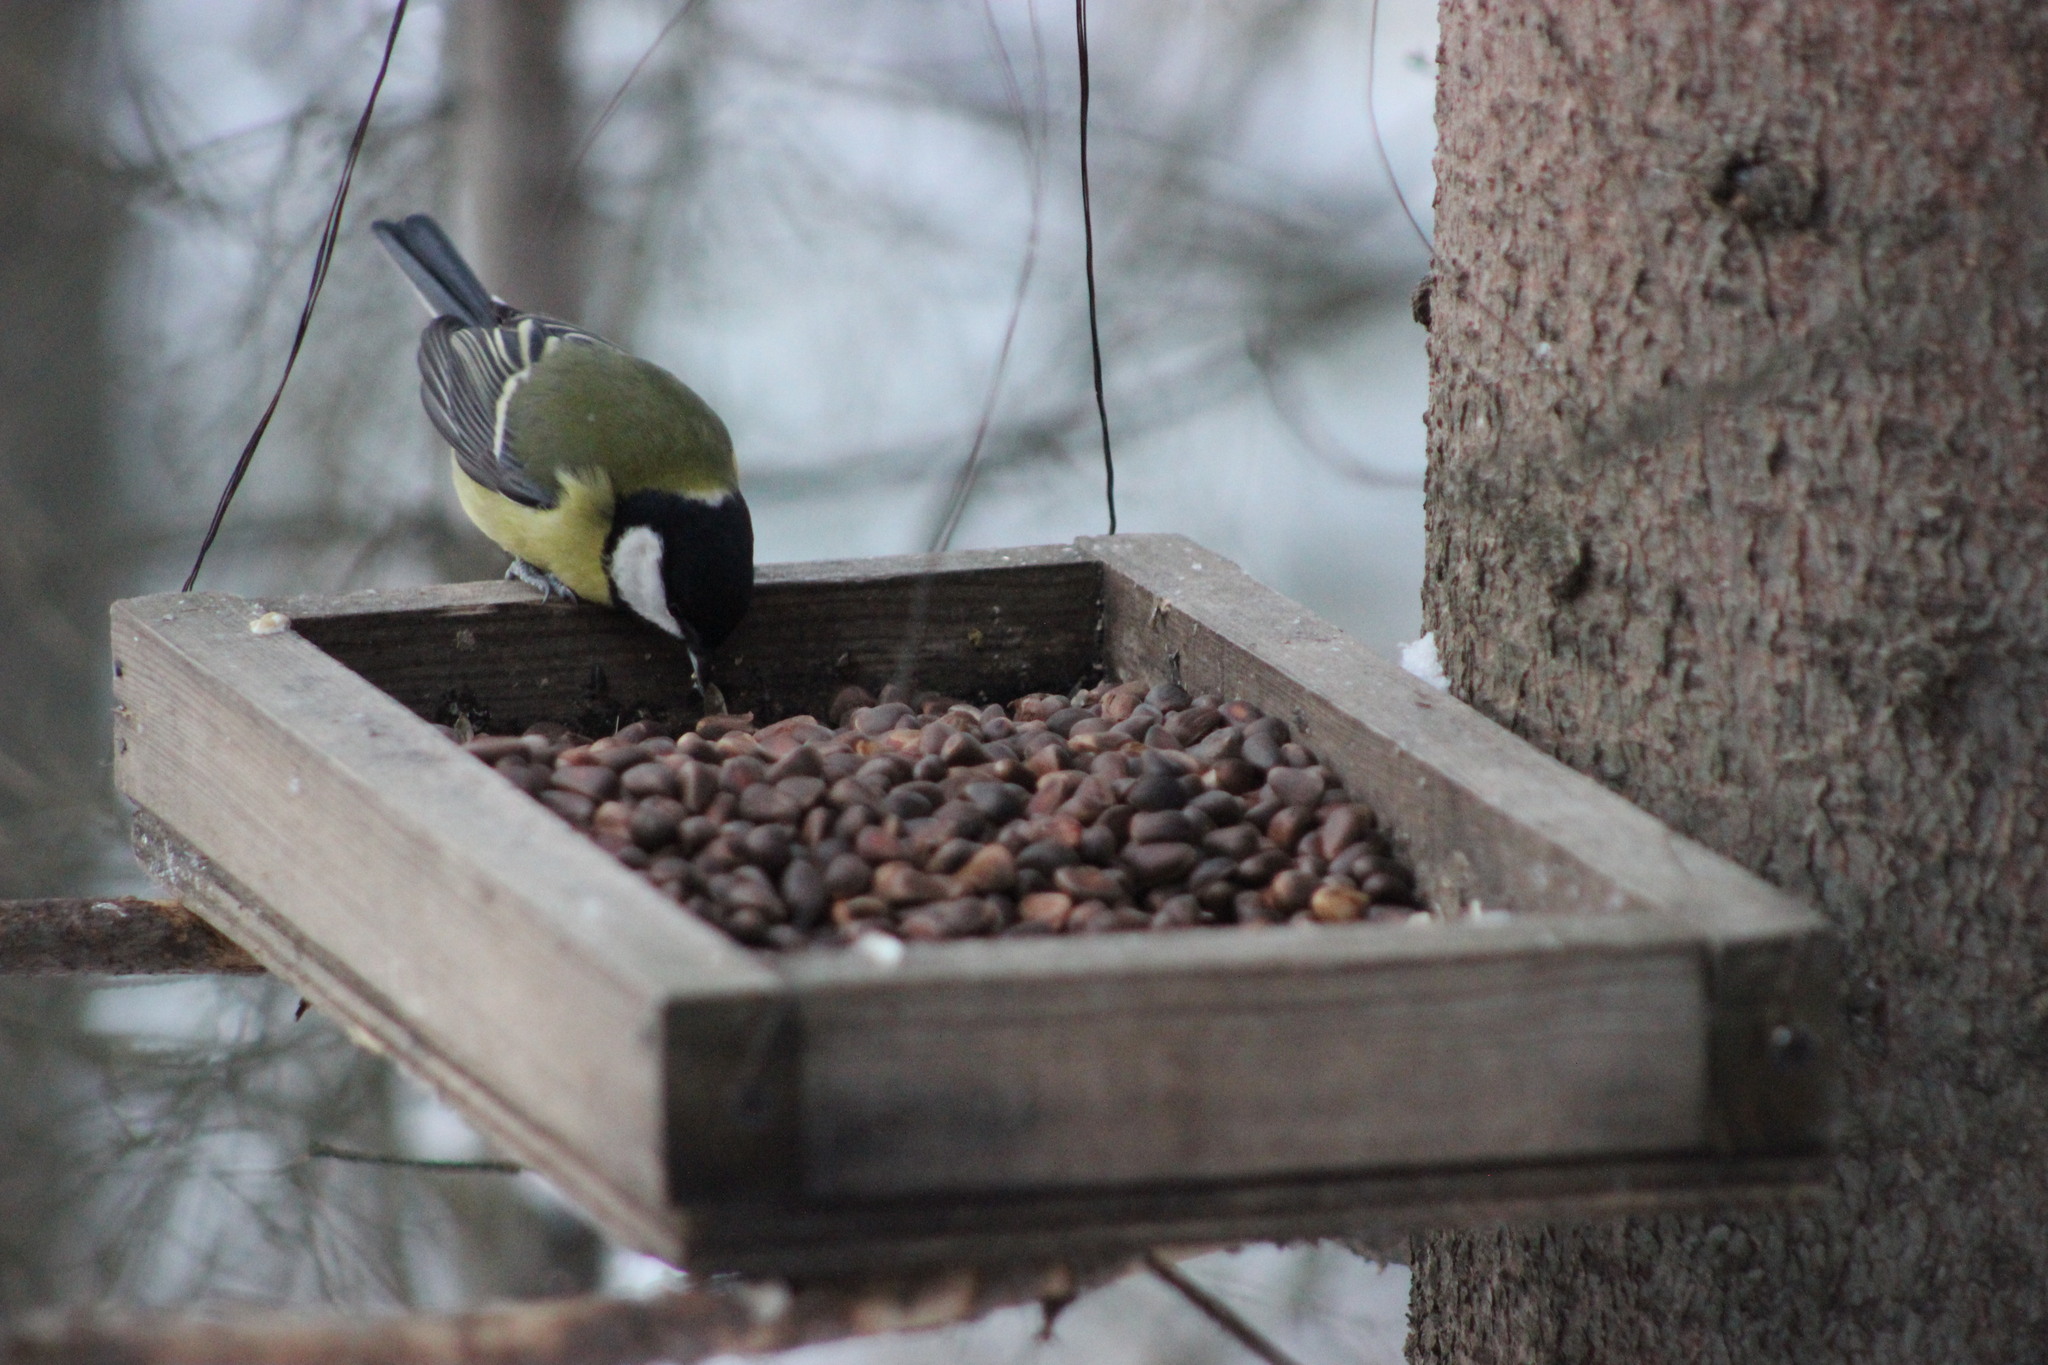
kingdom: Animalia
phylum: Chordata
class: Aves
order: Passeriformes
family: Paridae
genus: Parus
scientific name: Parus major
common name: Great tit
